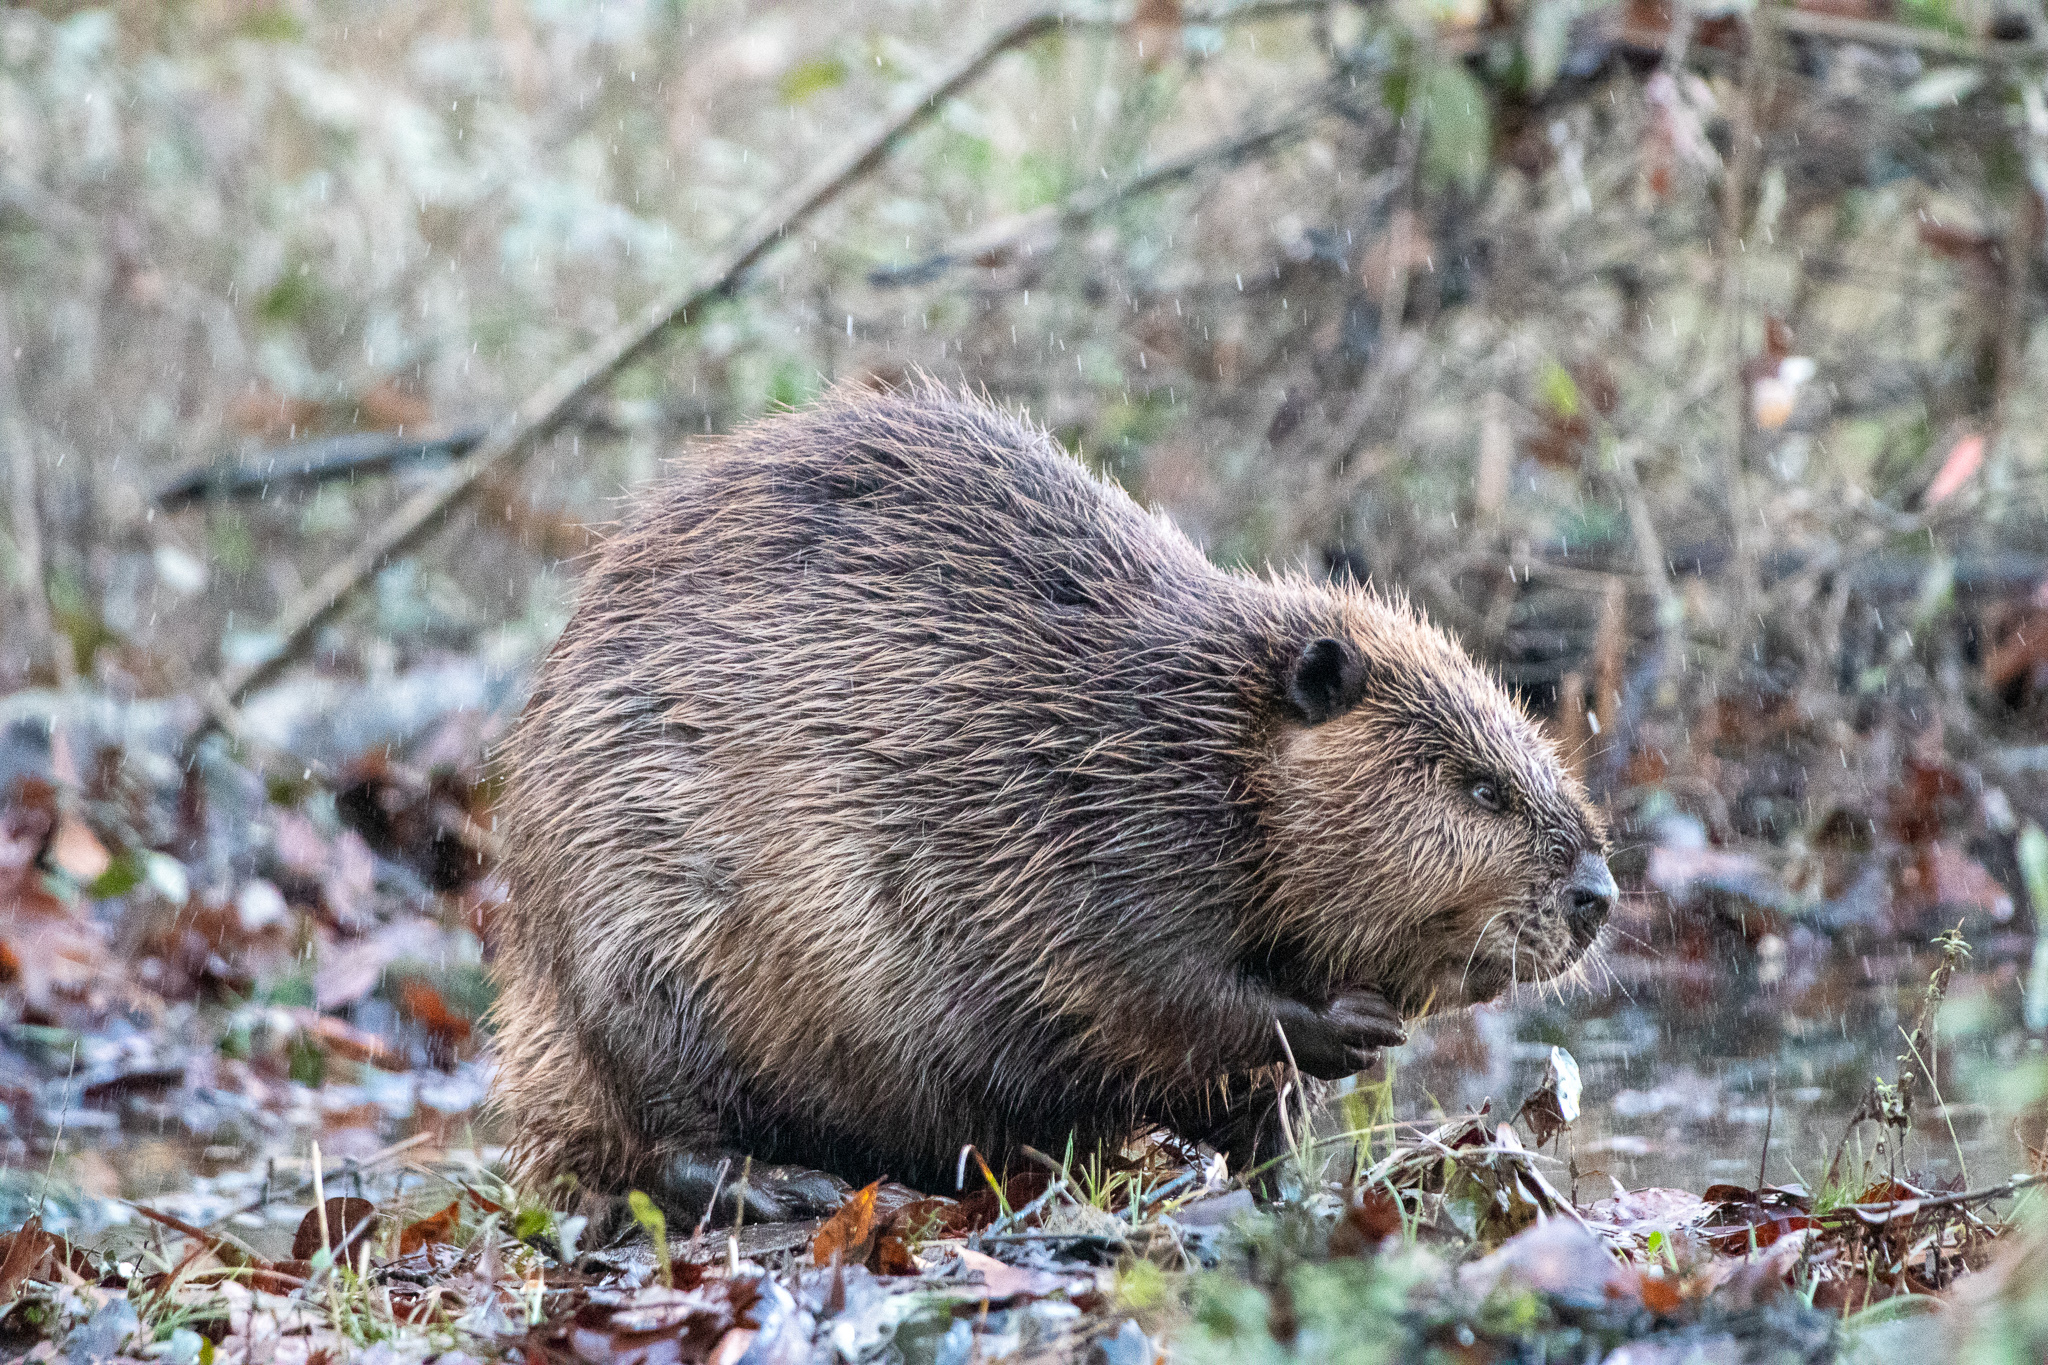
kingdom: Animalia
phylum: Chordata
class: Mammalia
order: Rodentia
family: Castoridae
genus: Castor
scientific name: Castor canadensis
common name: American beaver
